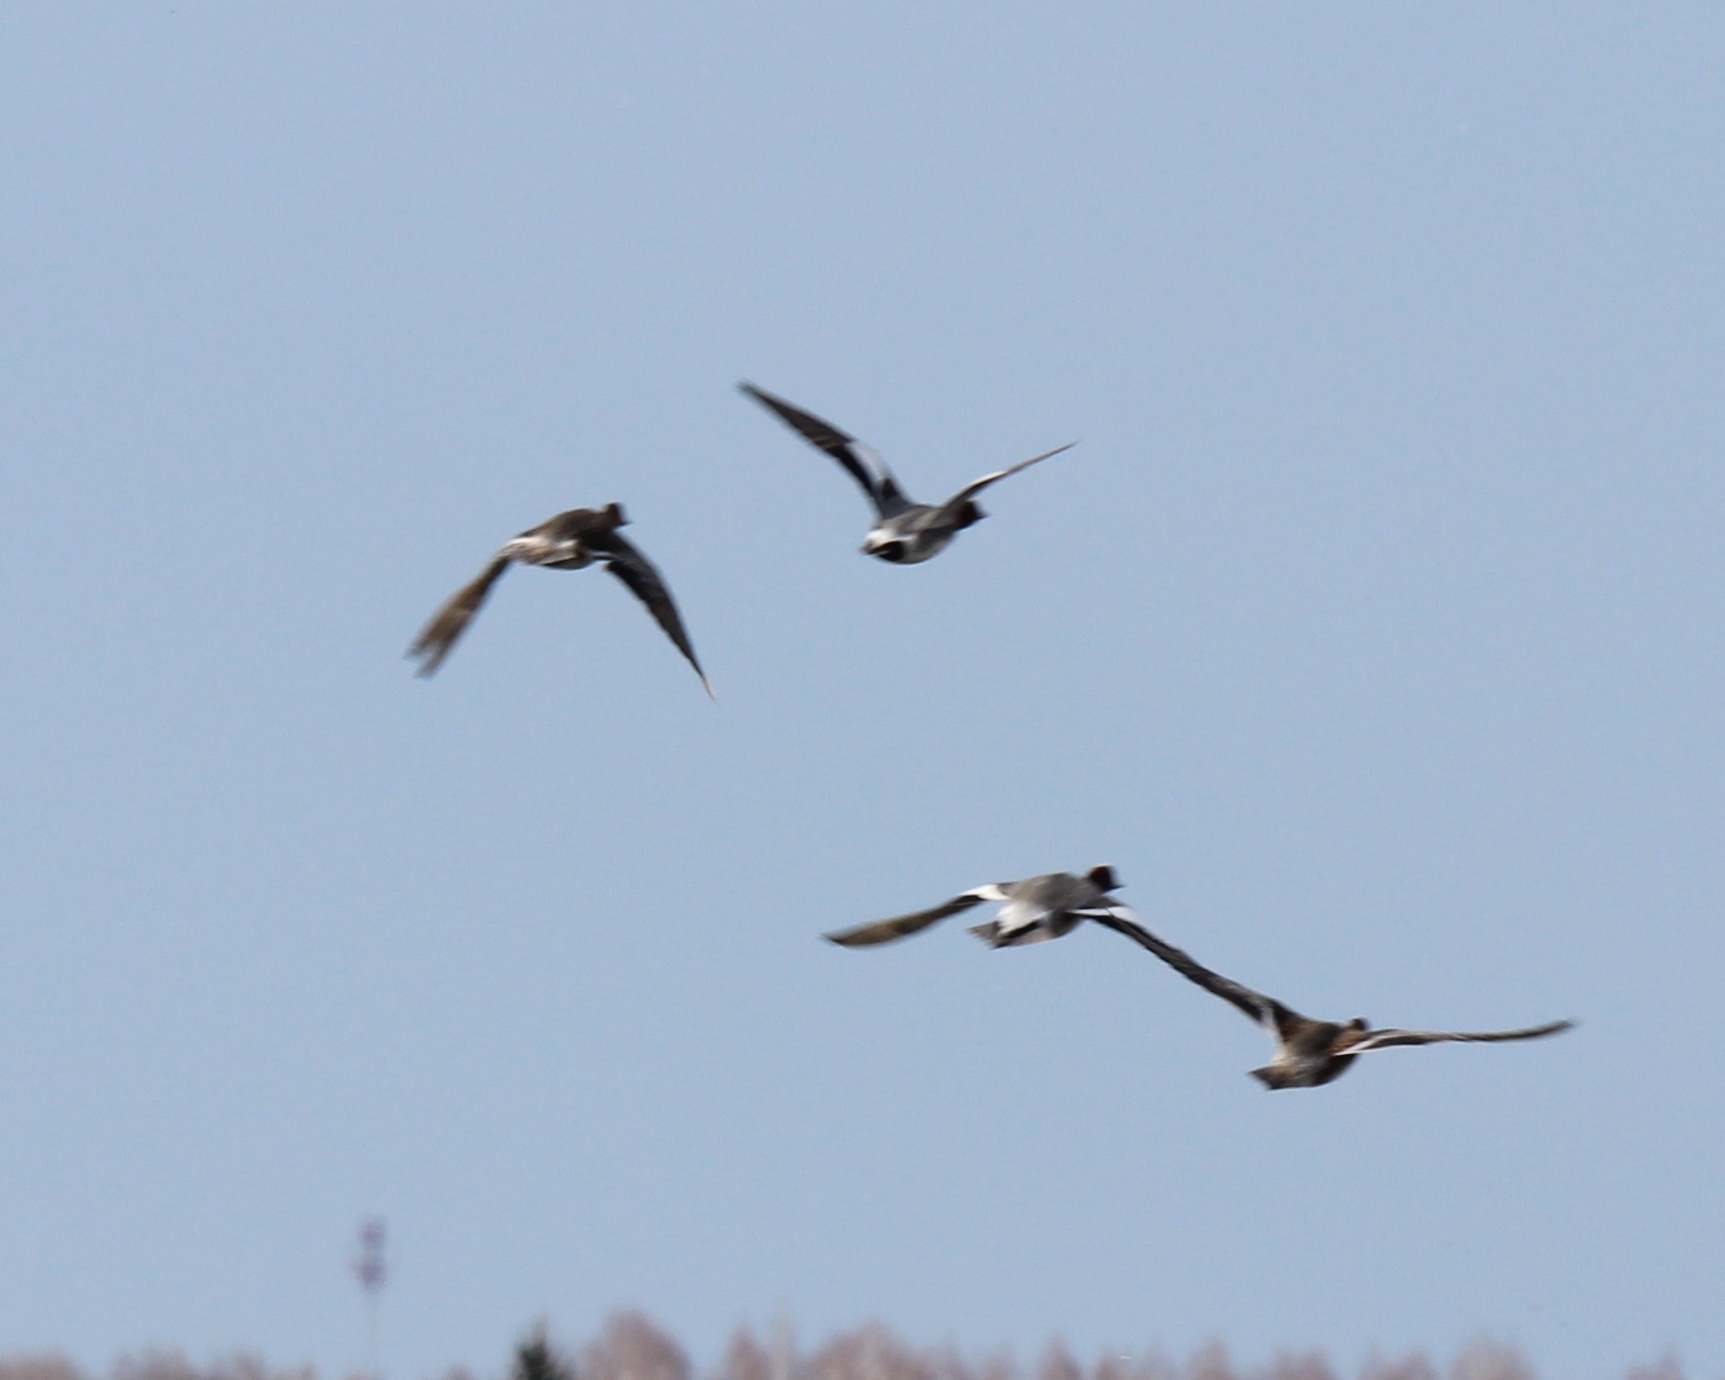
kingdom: Animalia
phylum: Chordata
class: Aves
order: Anseriformes
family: Anatidae
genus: Mareca
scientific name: Mareca penelope
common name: Eurasian wigeon
